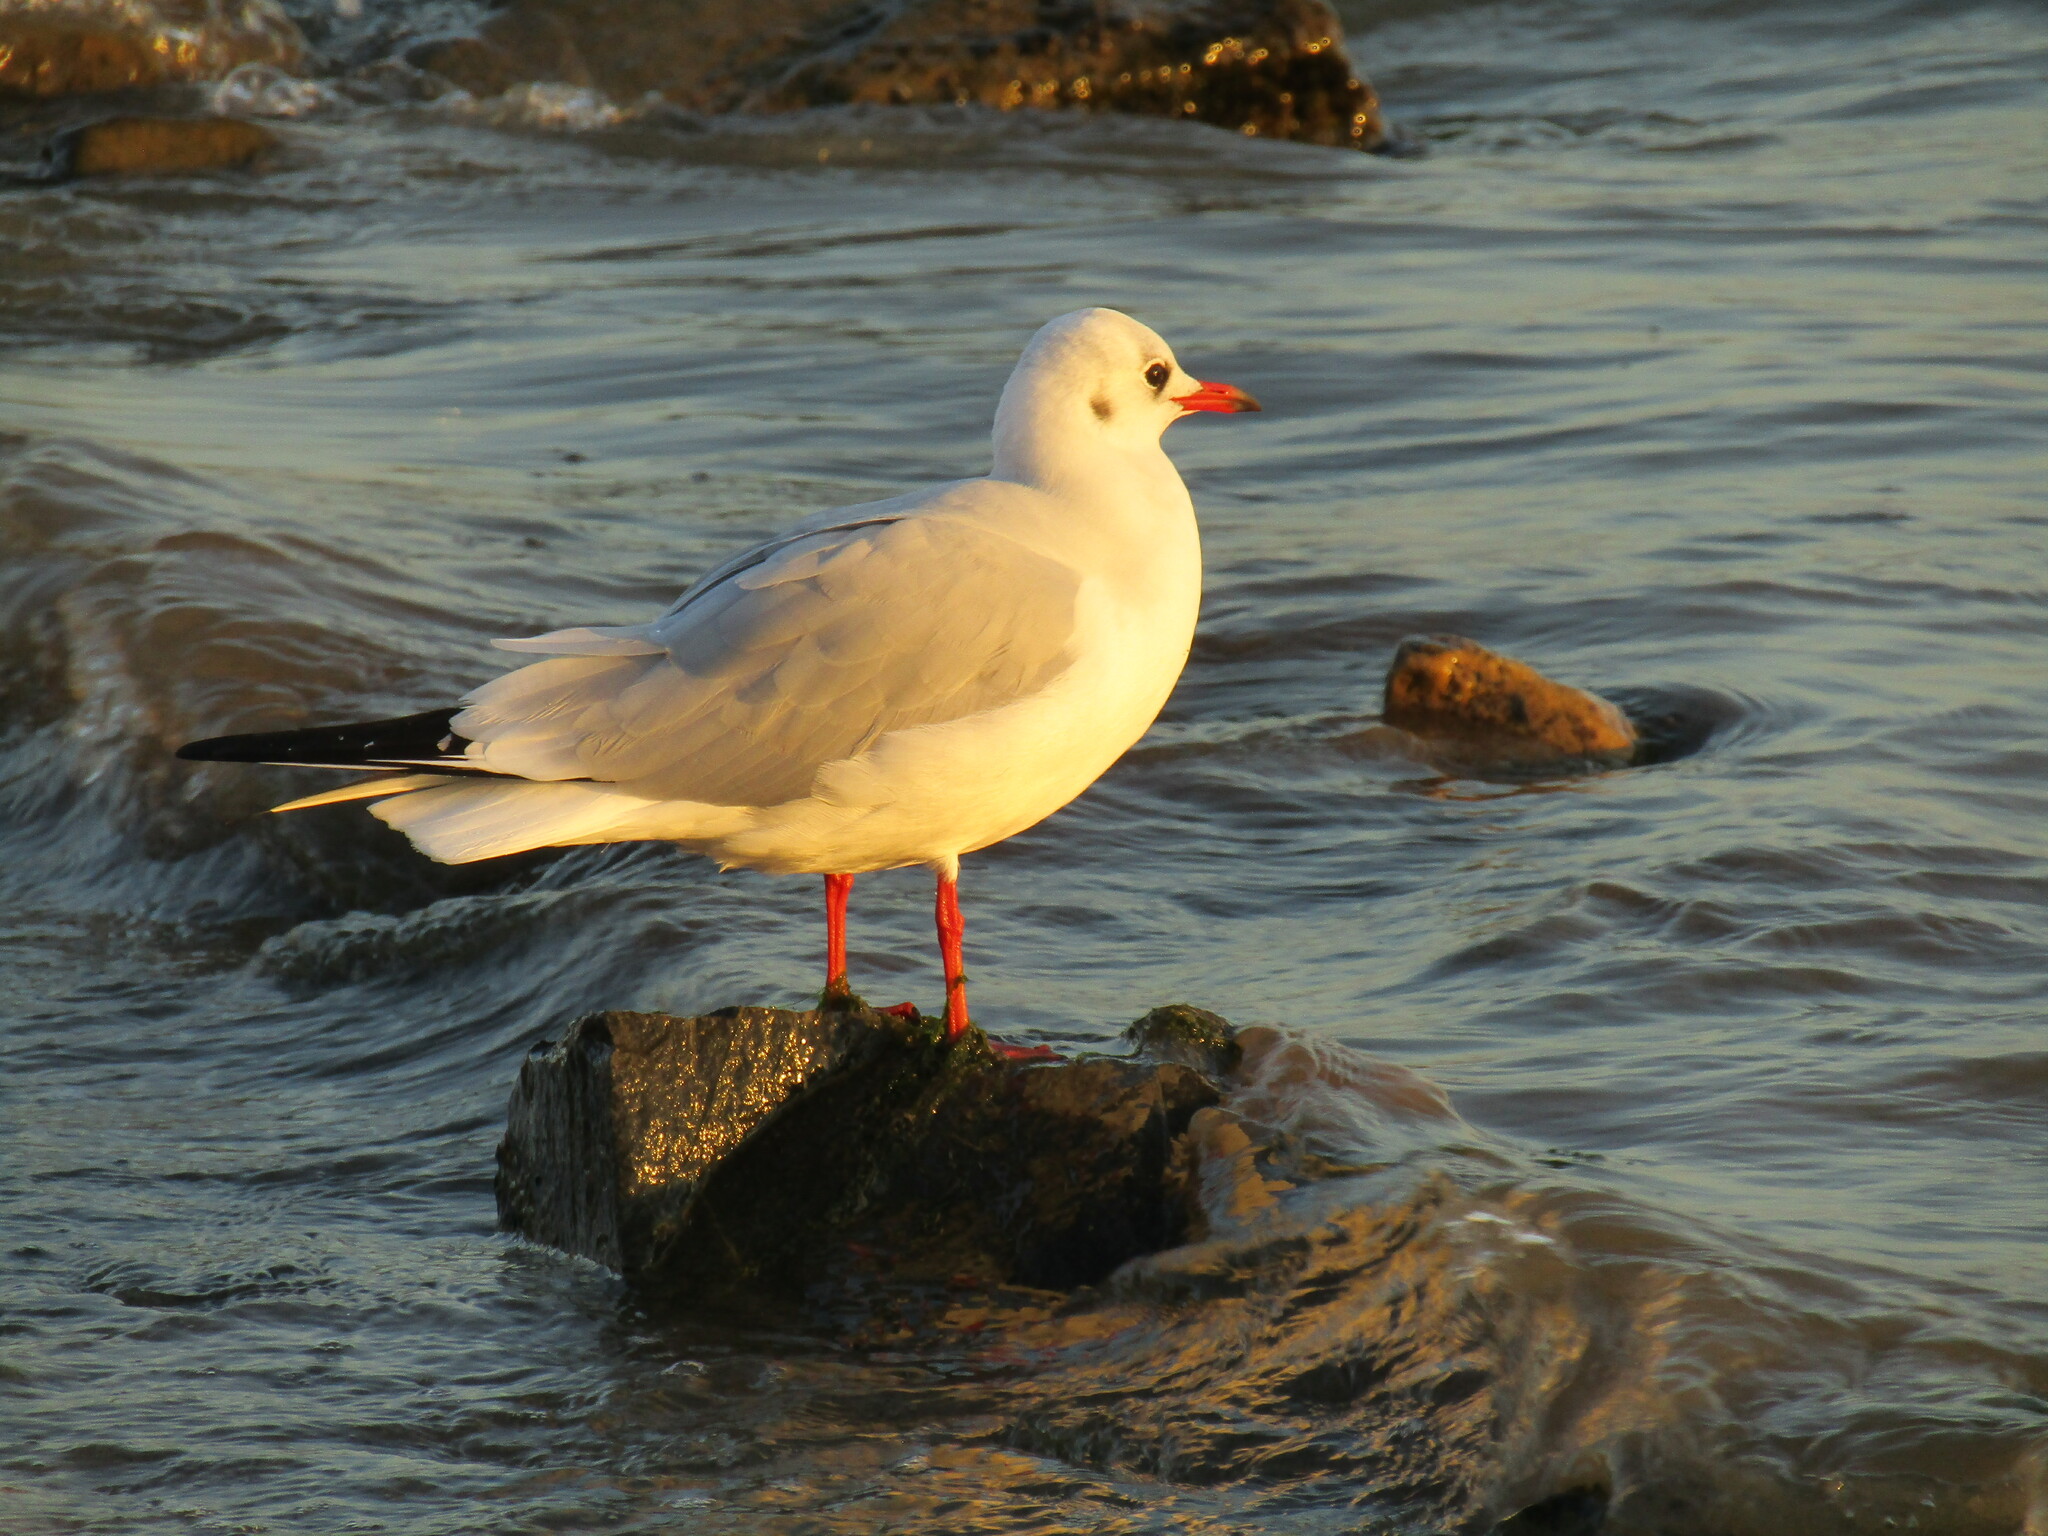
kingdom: Animalia
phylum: Chordata
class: Aves
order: Charadriiformes
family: Laridae
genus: Chroicocephalus
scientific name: Chroicocephalus ridibundus
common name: Black-headed gull
